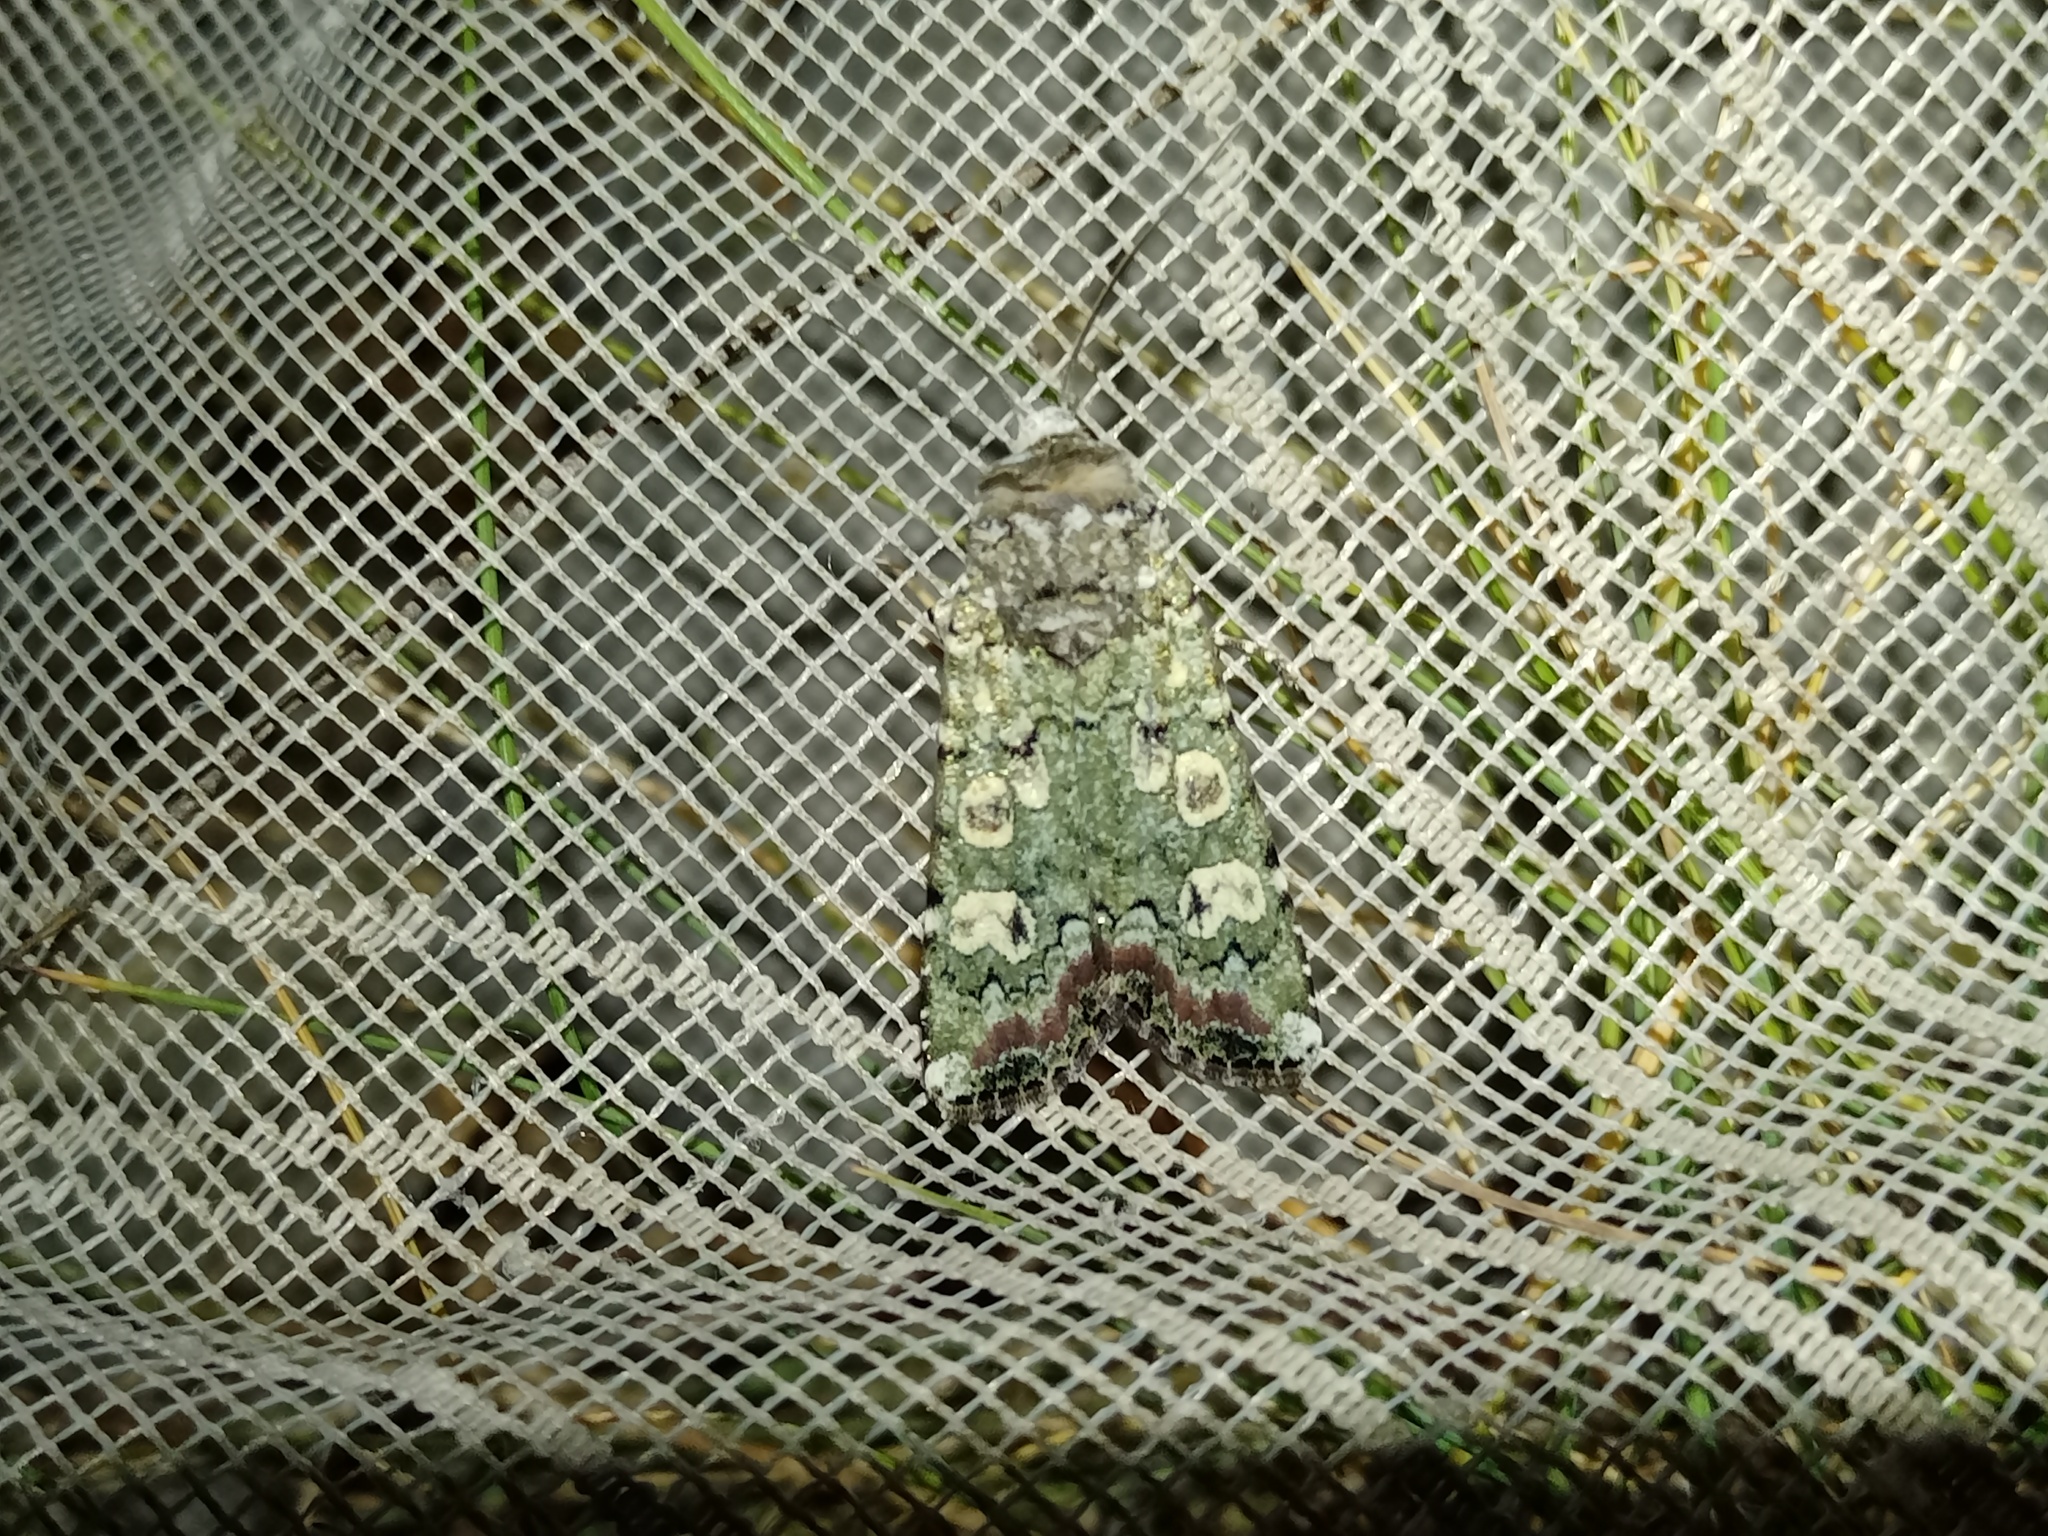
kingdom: Animalia
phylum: Arthropoda
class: Insecta
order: Lepidoptera
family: Noctuidae
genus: Actebia
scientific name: Actebia praecox
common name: Portland moth
